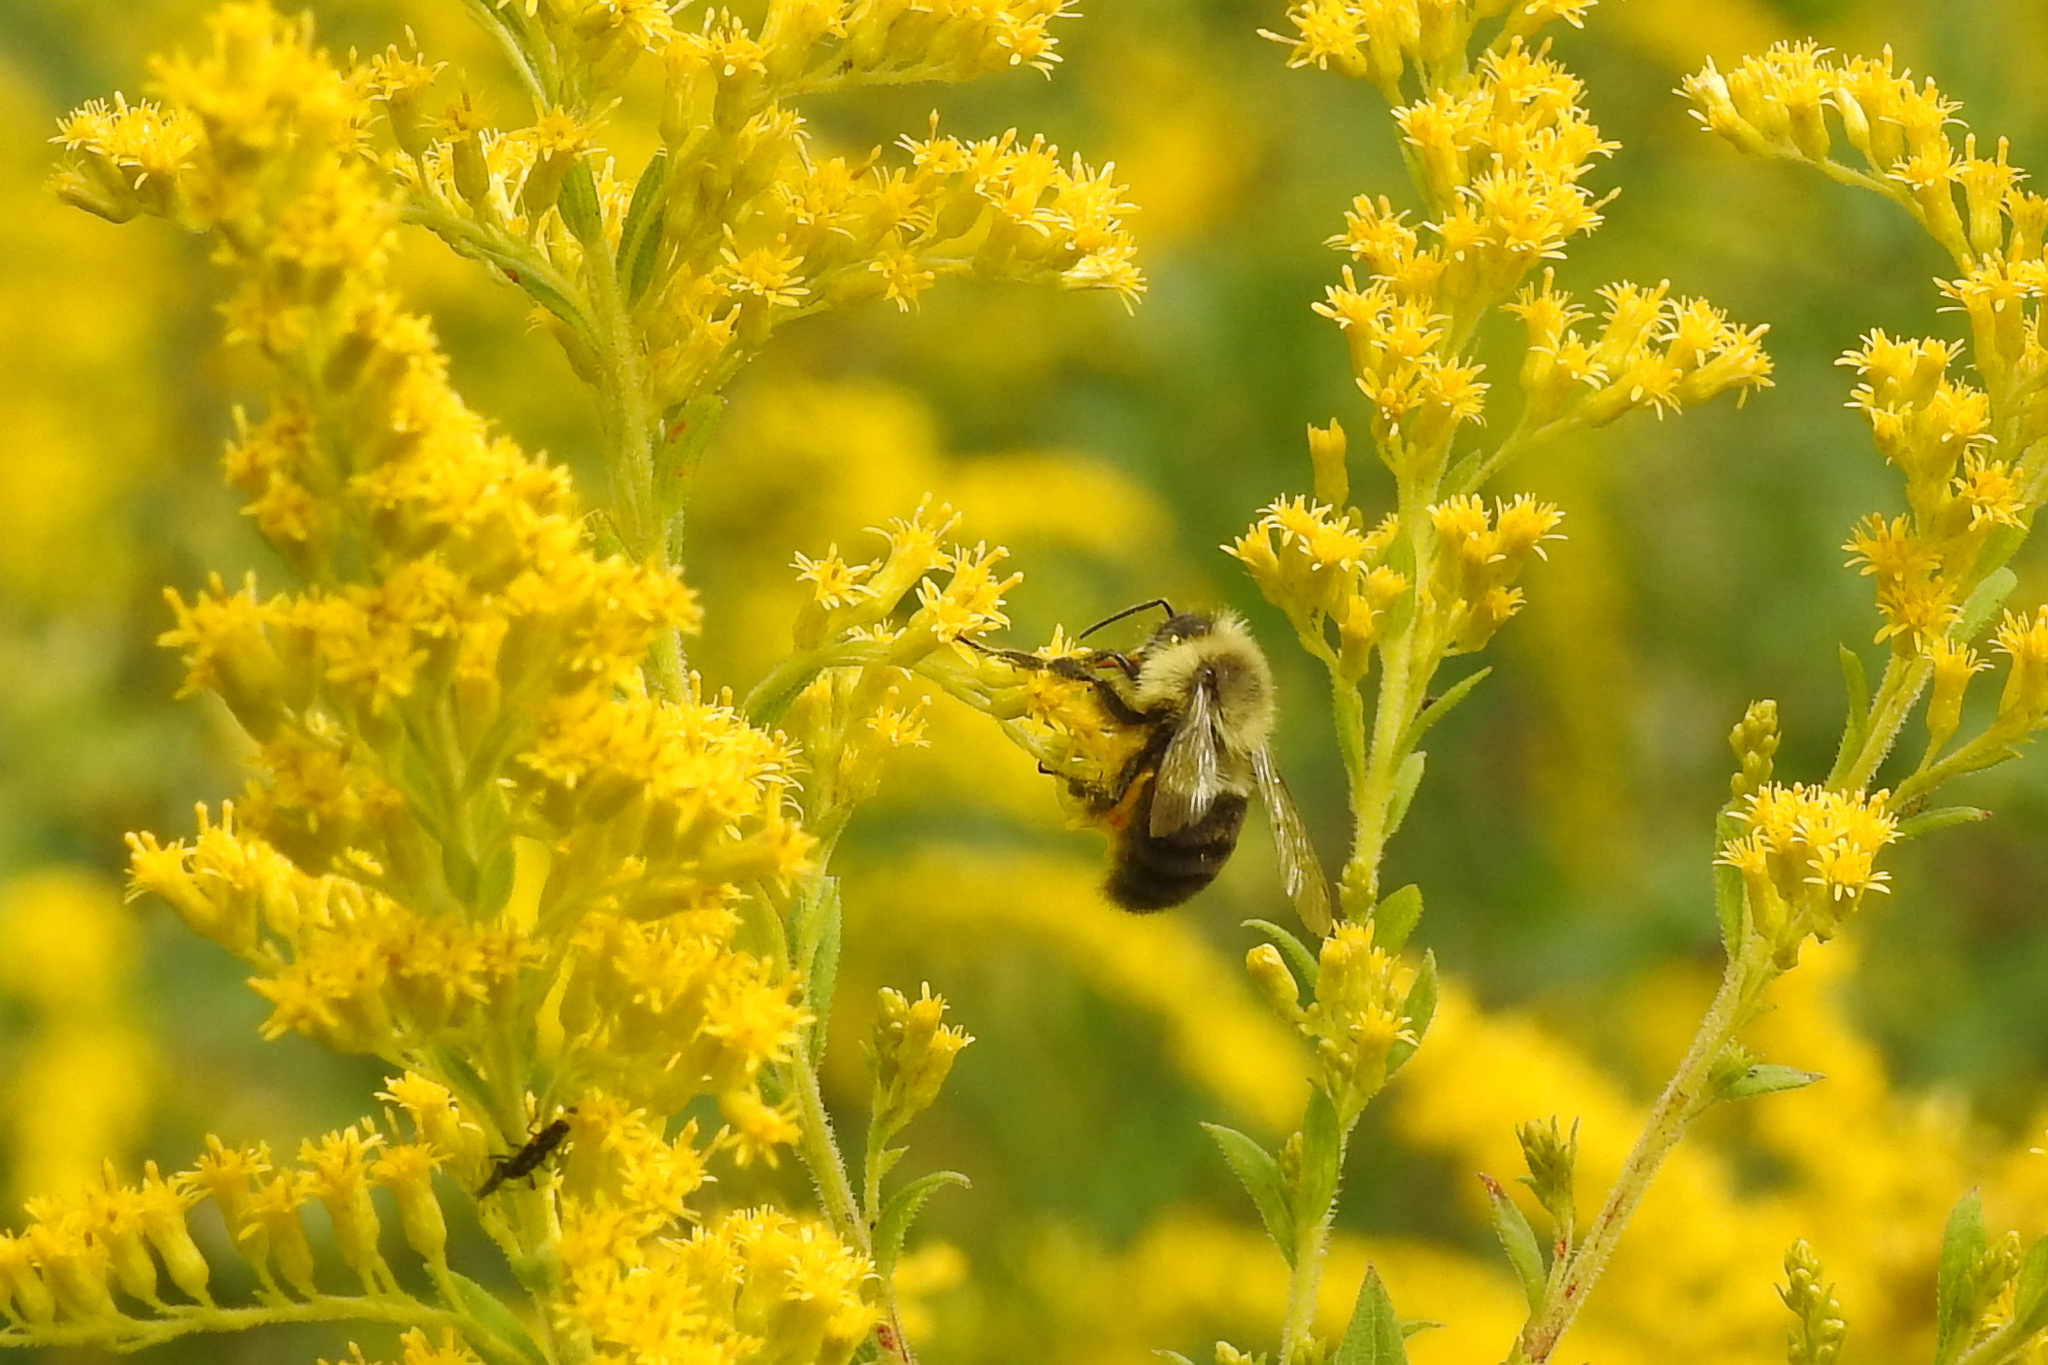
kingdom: Animalia
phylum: Arthropoda
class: Insecta
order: Hymenoptera
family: Apidae
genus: Bombus
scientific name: Bombus impatiens
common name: Common eastern bumble bee
